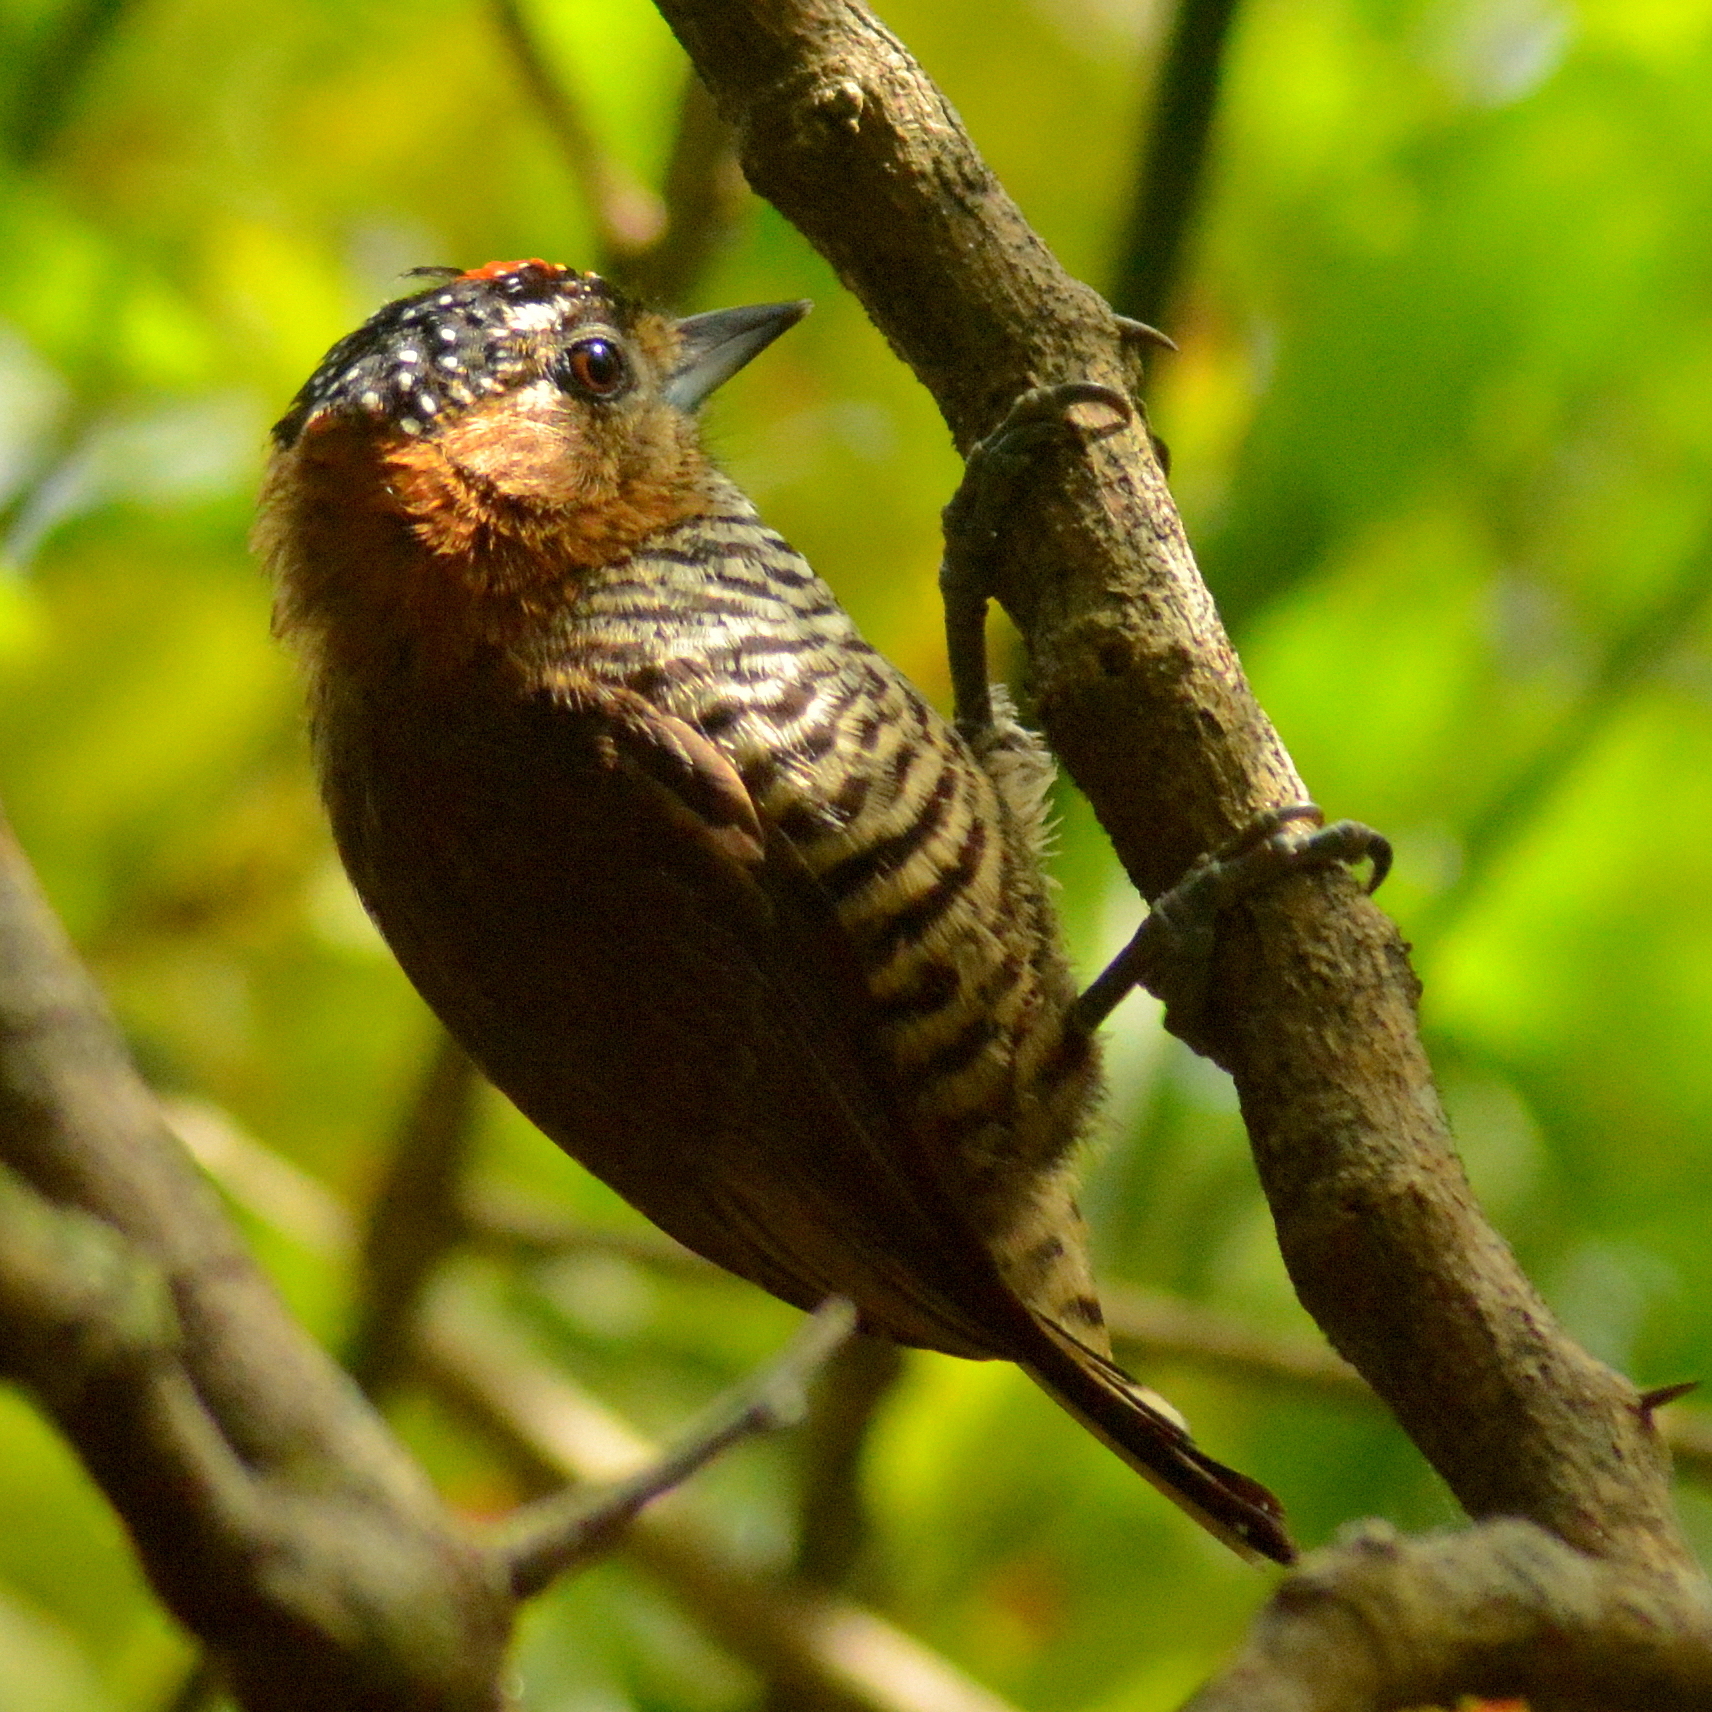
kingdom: Animalia
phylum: Chordata
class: Aves
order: Piciformes
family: Picidae
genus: Picumnus
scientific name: Picumnus temminckii
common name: Ochre-collared piculet
